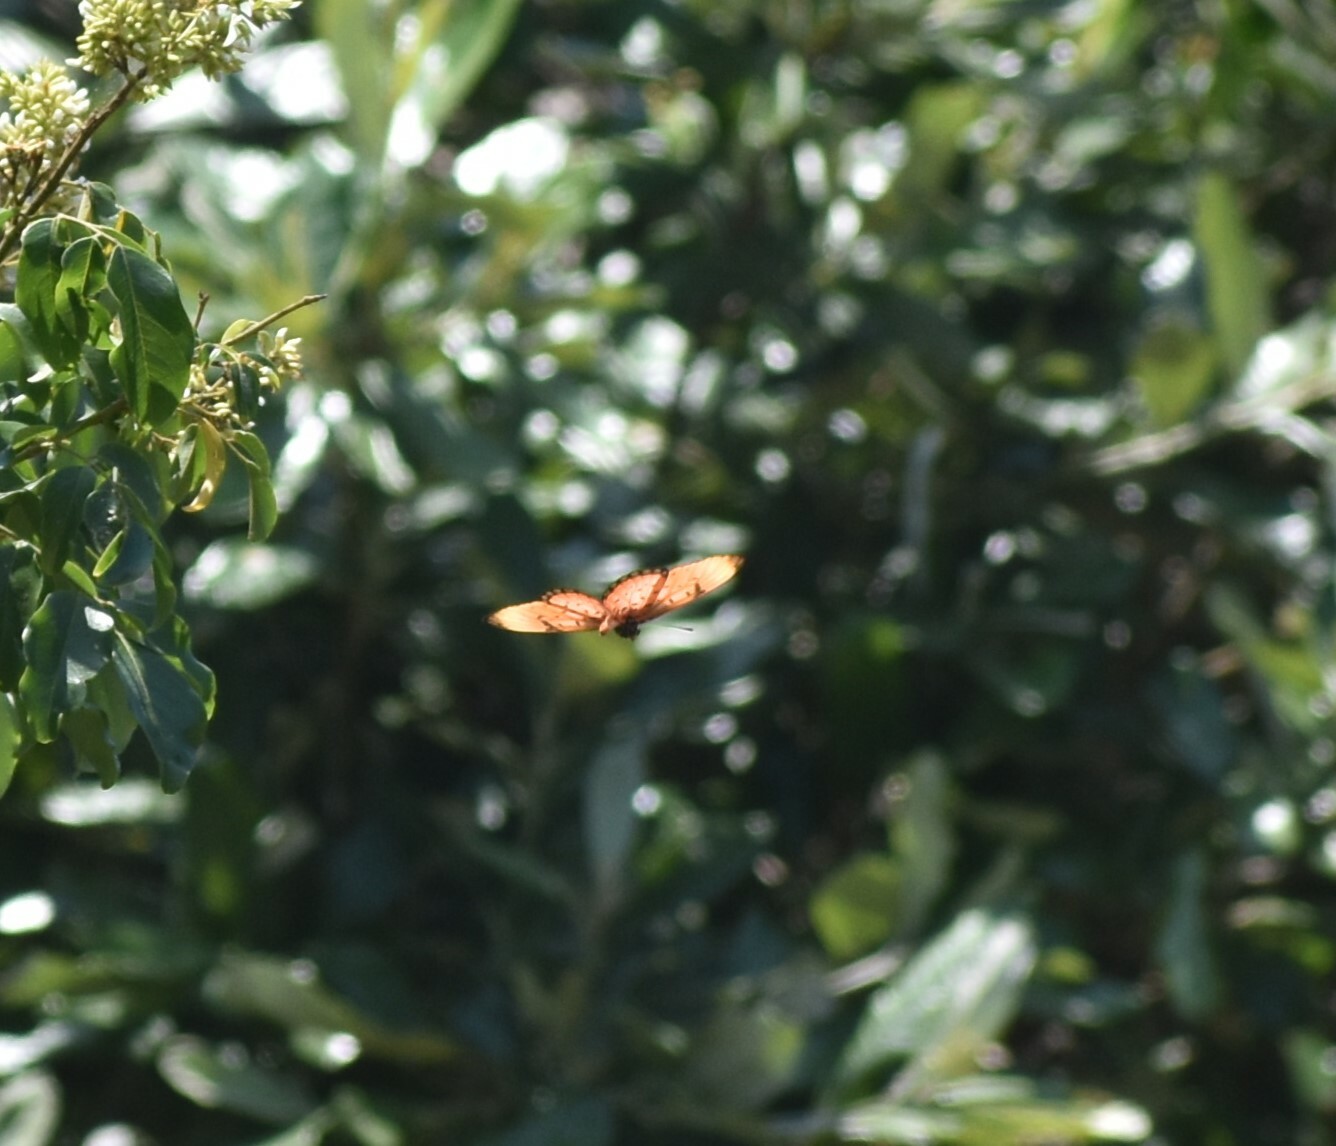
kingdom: Animalia
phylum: Arthropoda
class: Insecta
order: Lepidoptera
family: Nymphalidae
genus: Stephenia
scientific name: Stephenia
